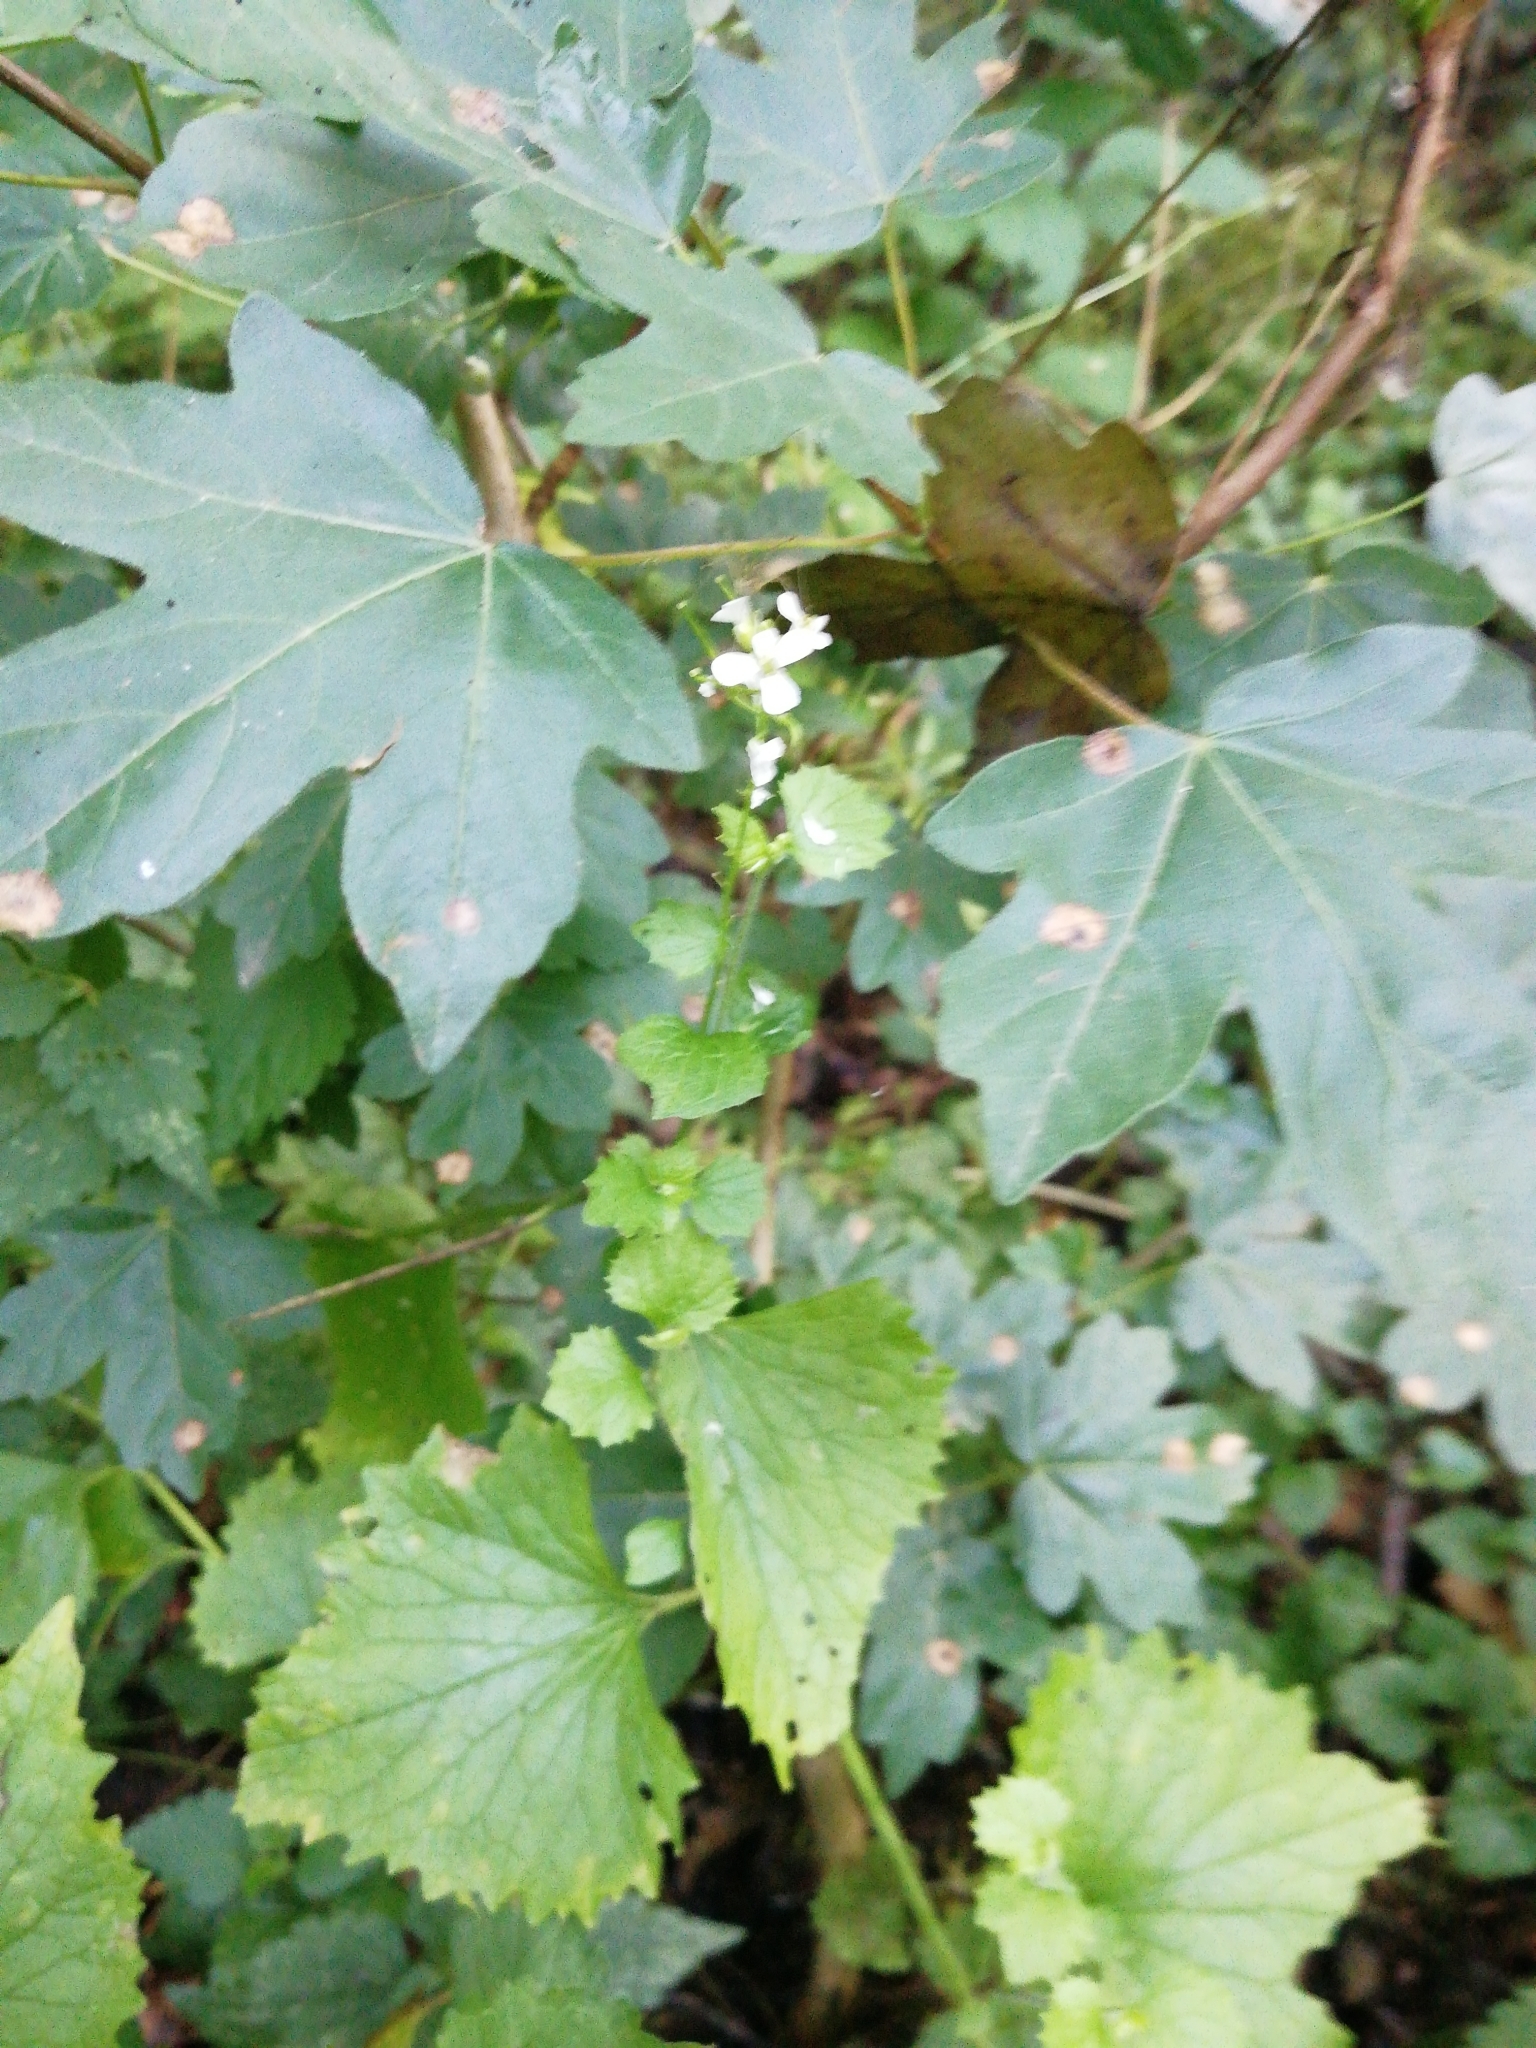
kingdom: Plantae
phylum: Tracheophyta
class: Magnoliopsida
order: Brassicales
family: Brassicaceae
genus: Alliaria
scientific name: Alliaria petiolata
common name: Garlic mustard
